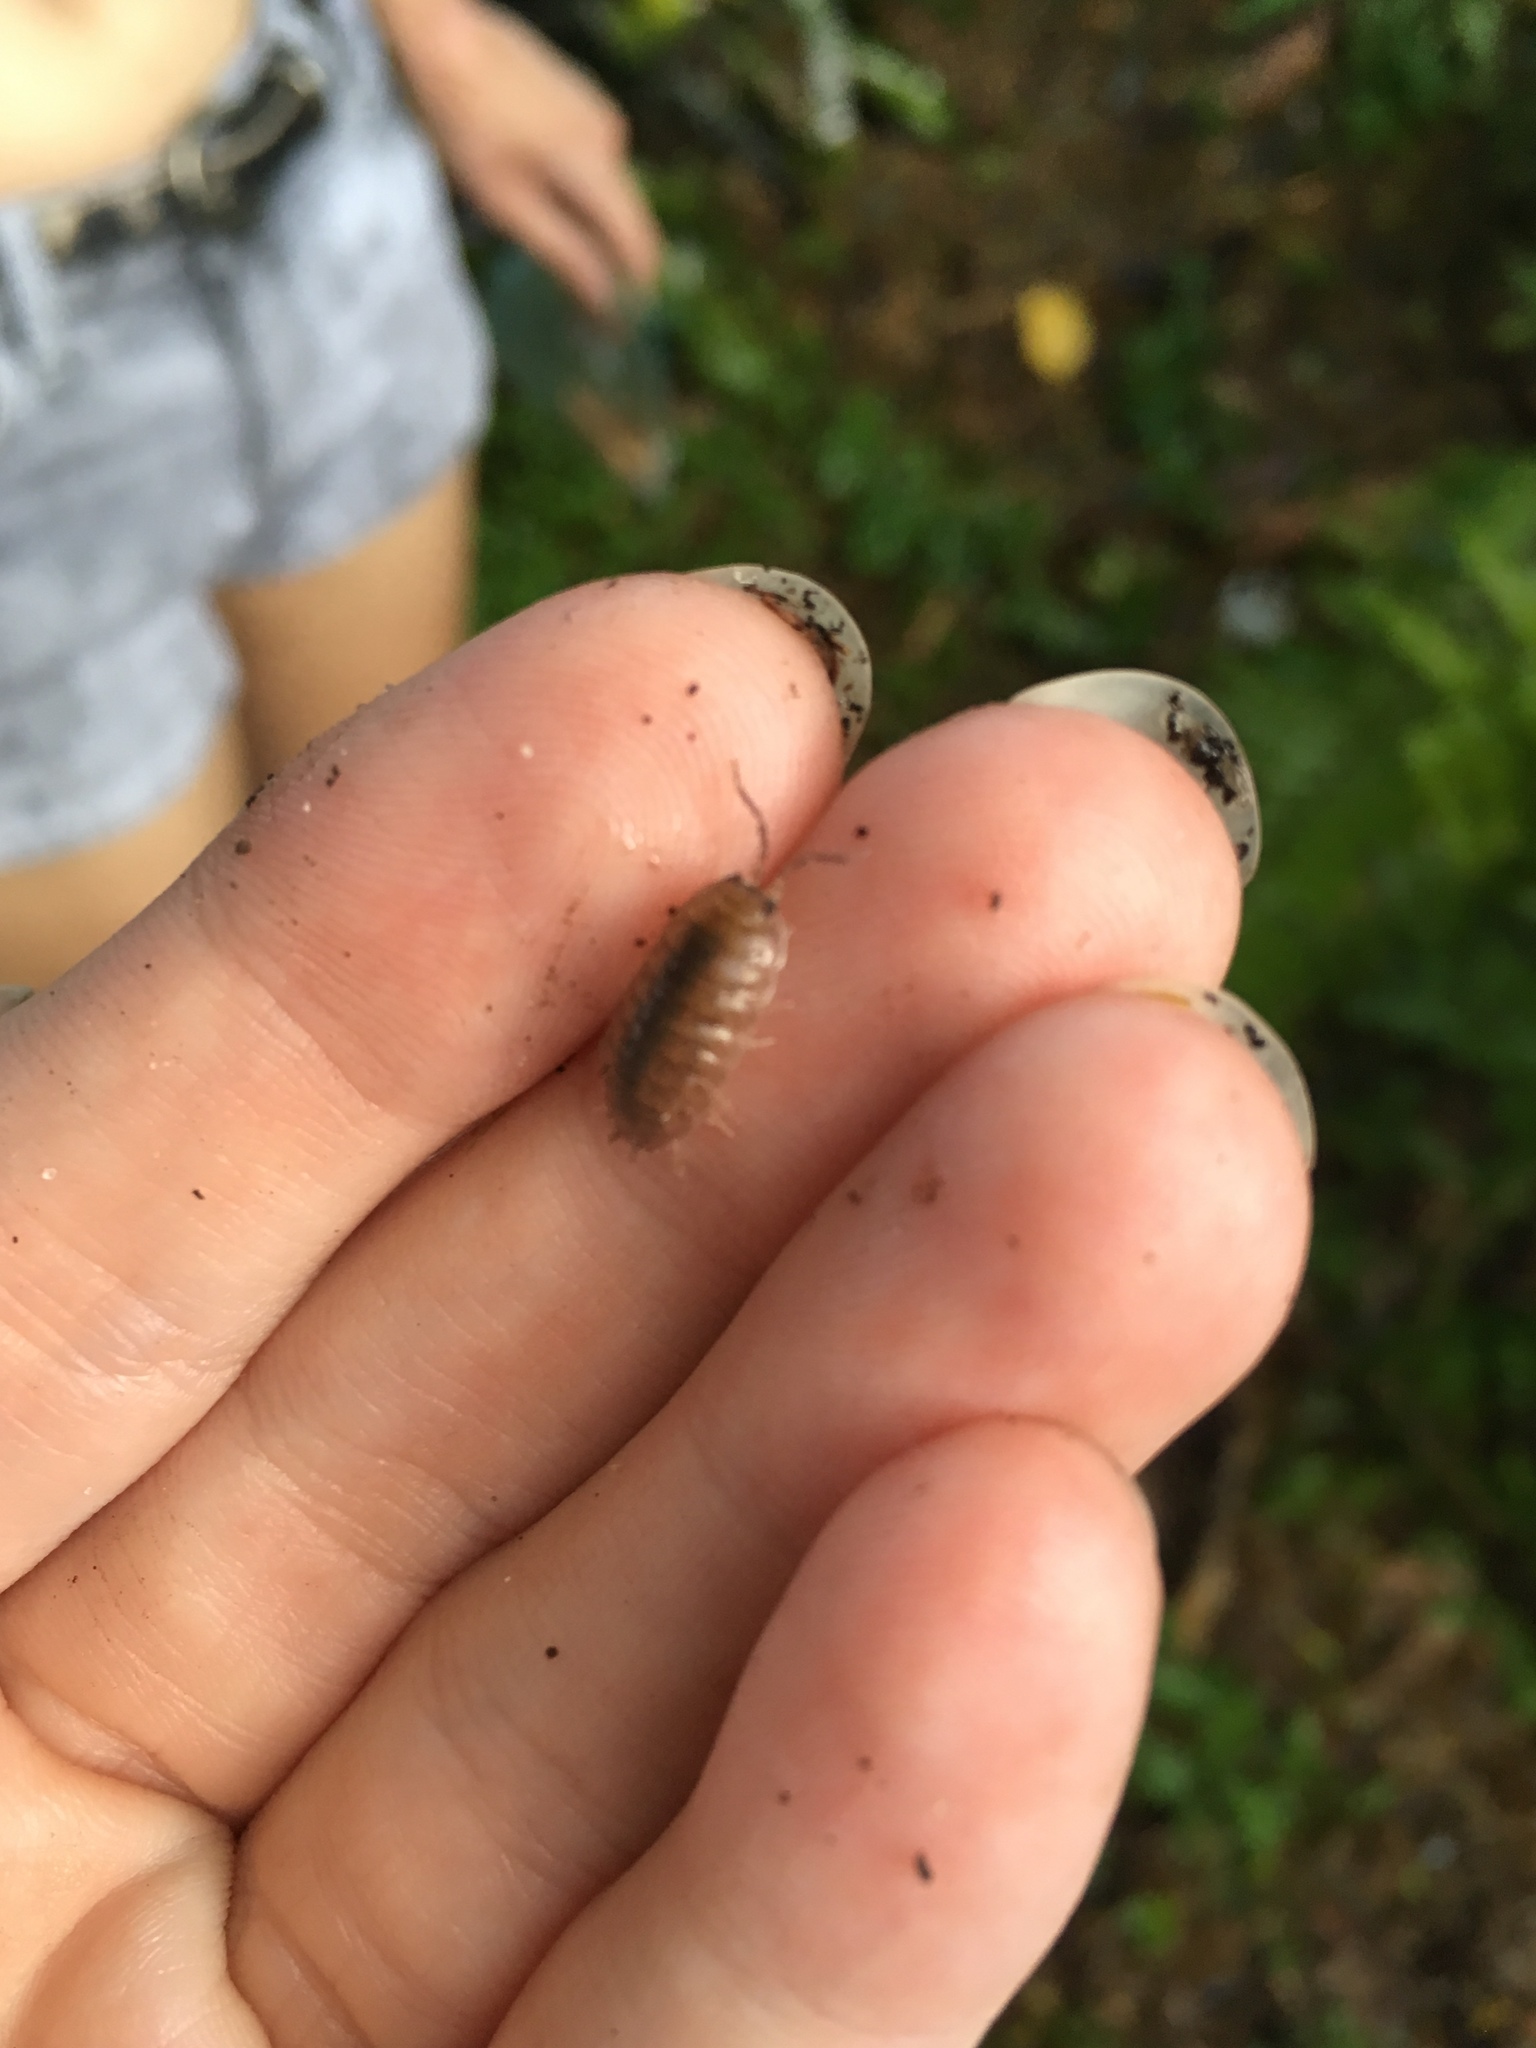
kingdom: Animalia
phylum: Arthropoda
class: Malacostraca
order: Isopoda
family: Porcellionidae
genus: Porcellio
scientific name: Porcellio laevis
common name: Swift woodlouse
